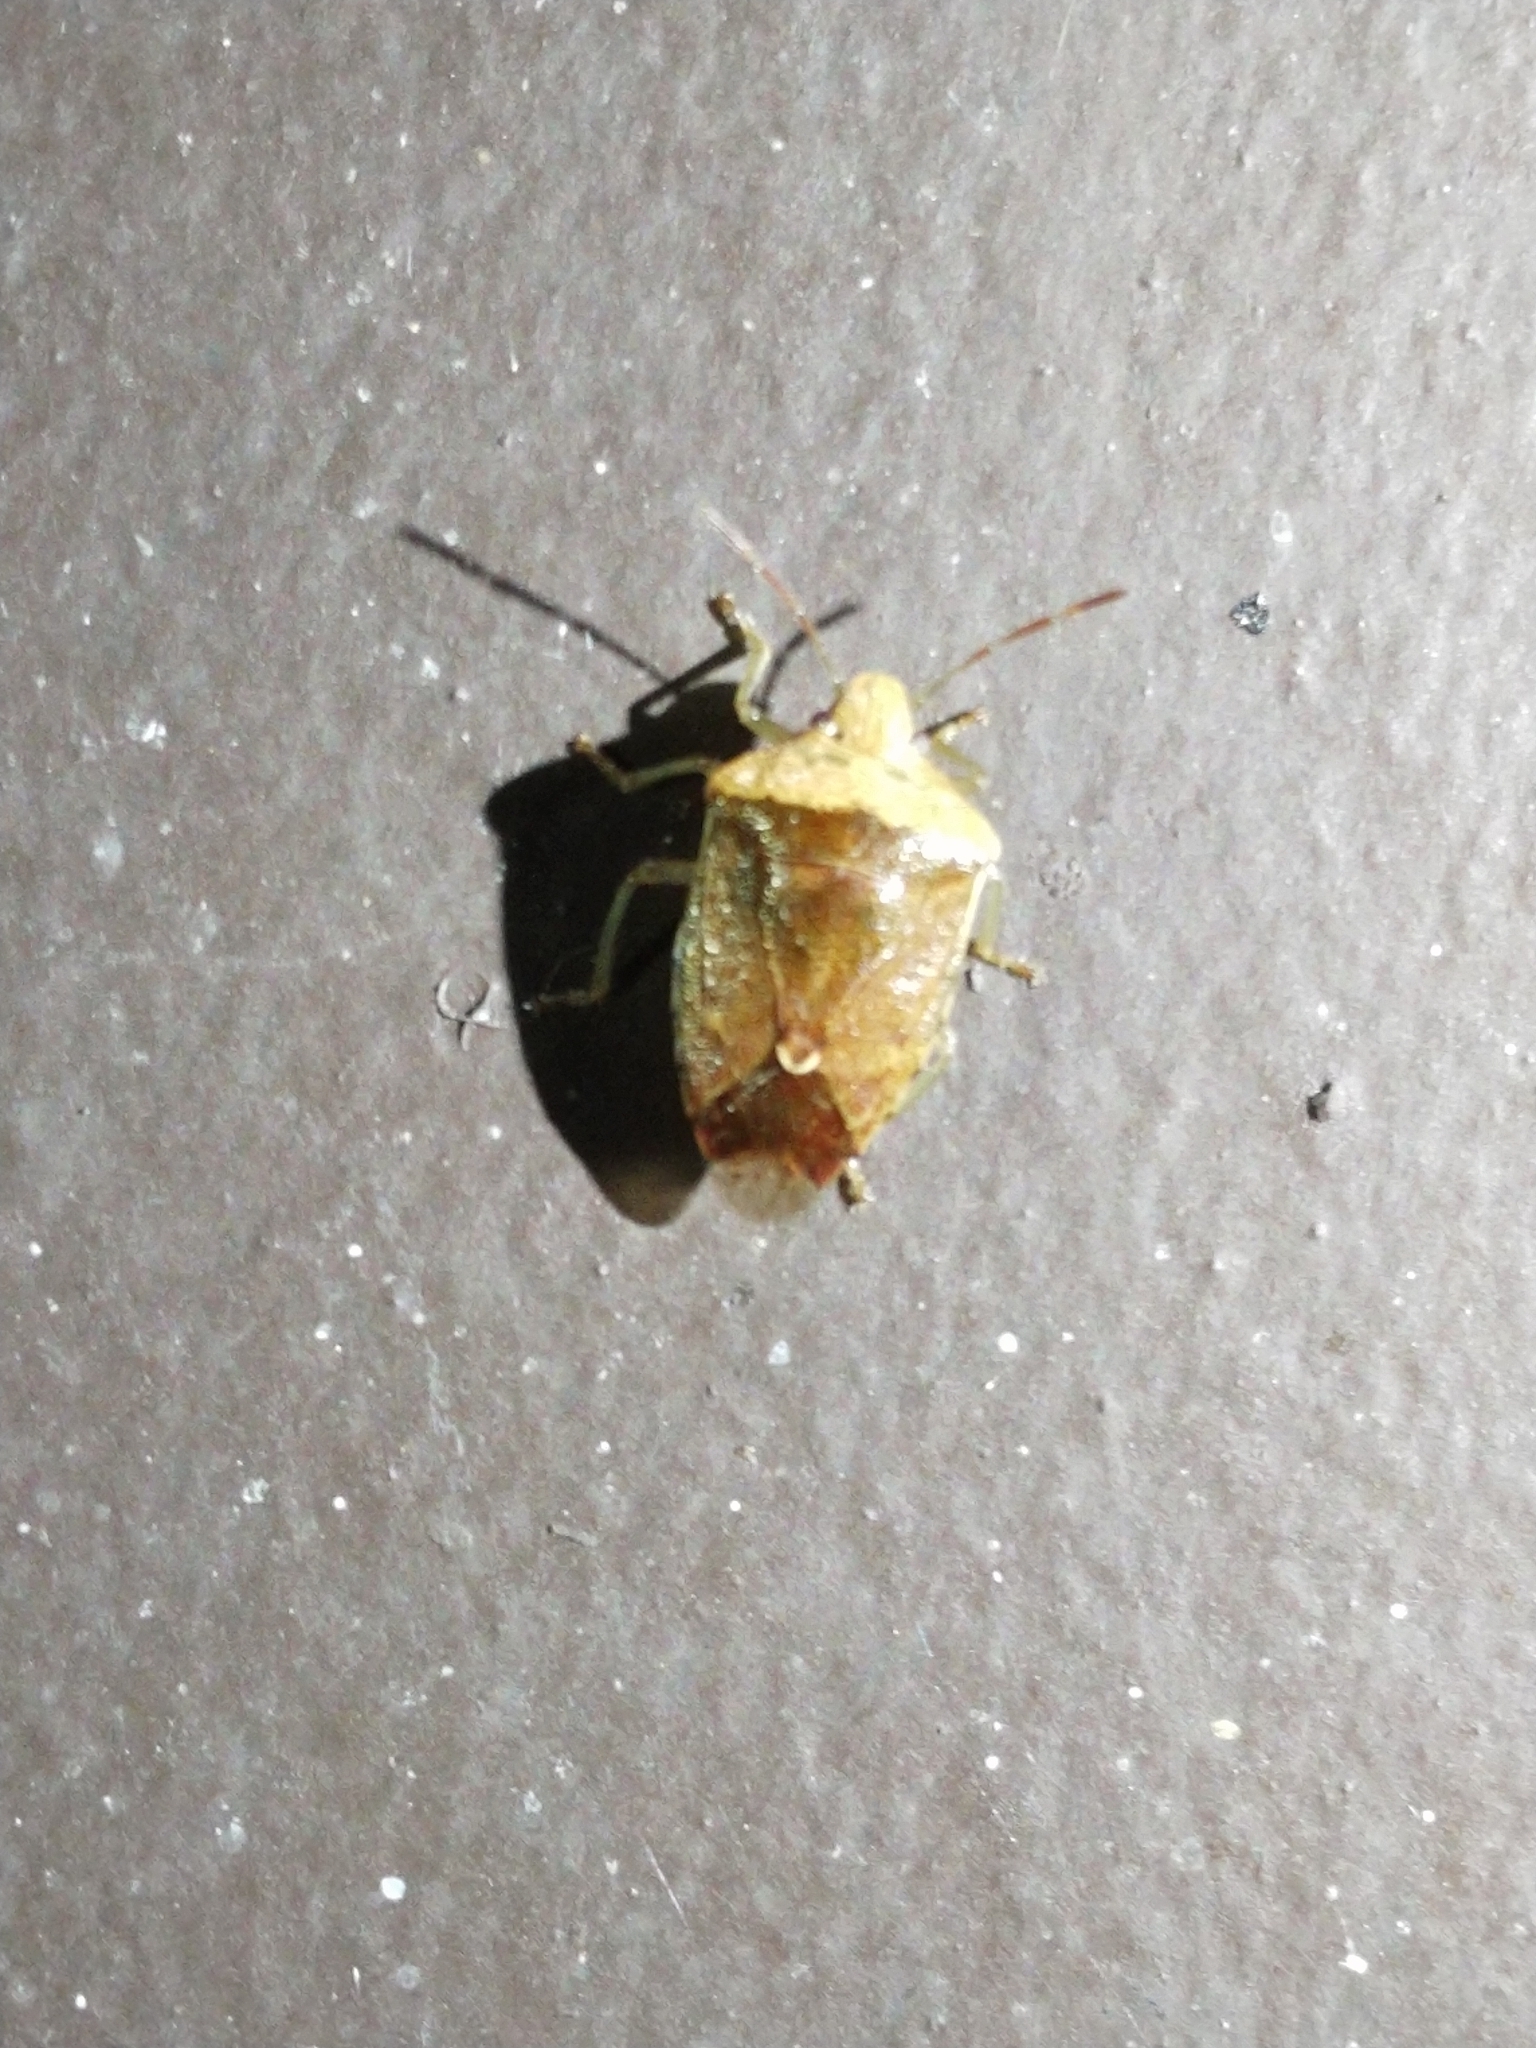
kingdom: Animalia
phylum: Arthropoda
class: Insecta
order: Hemiptera
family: Pentatomidae
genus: Banasa
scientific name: Banasa calva
